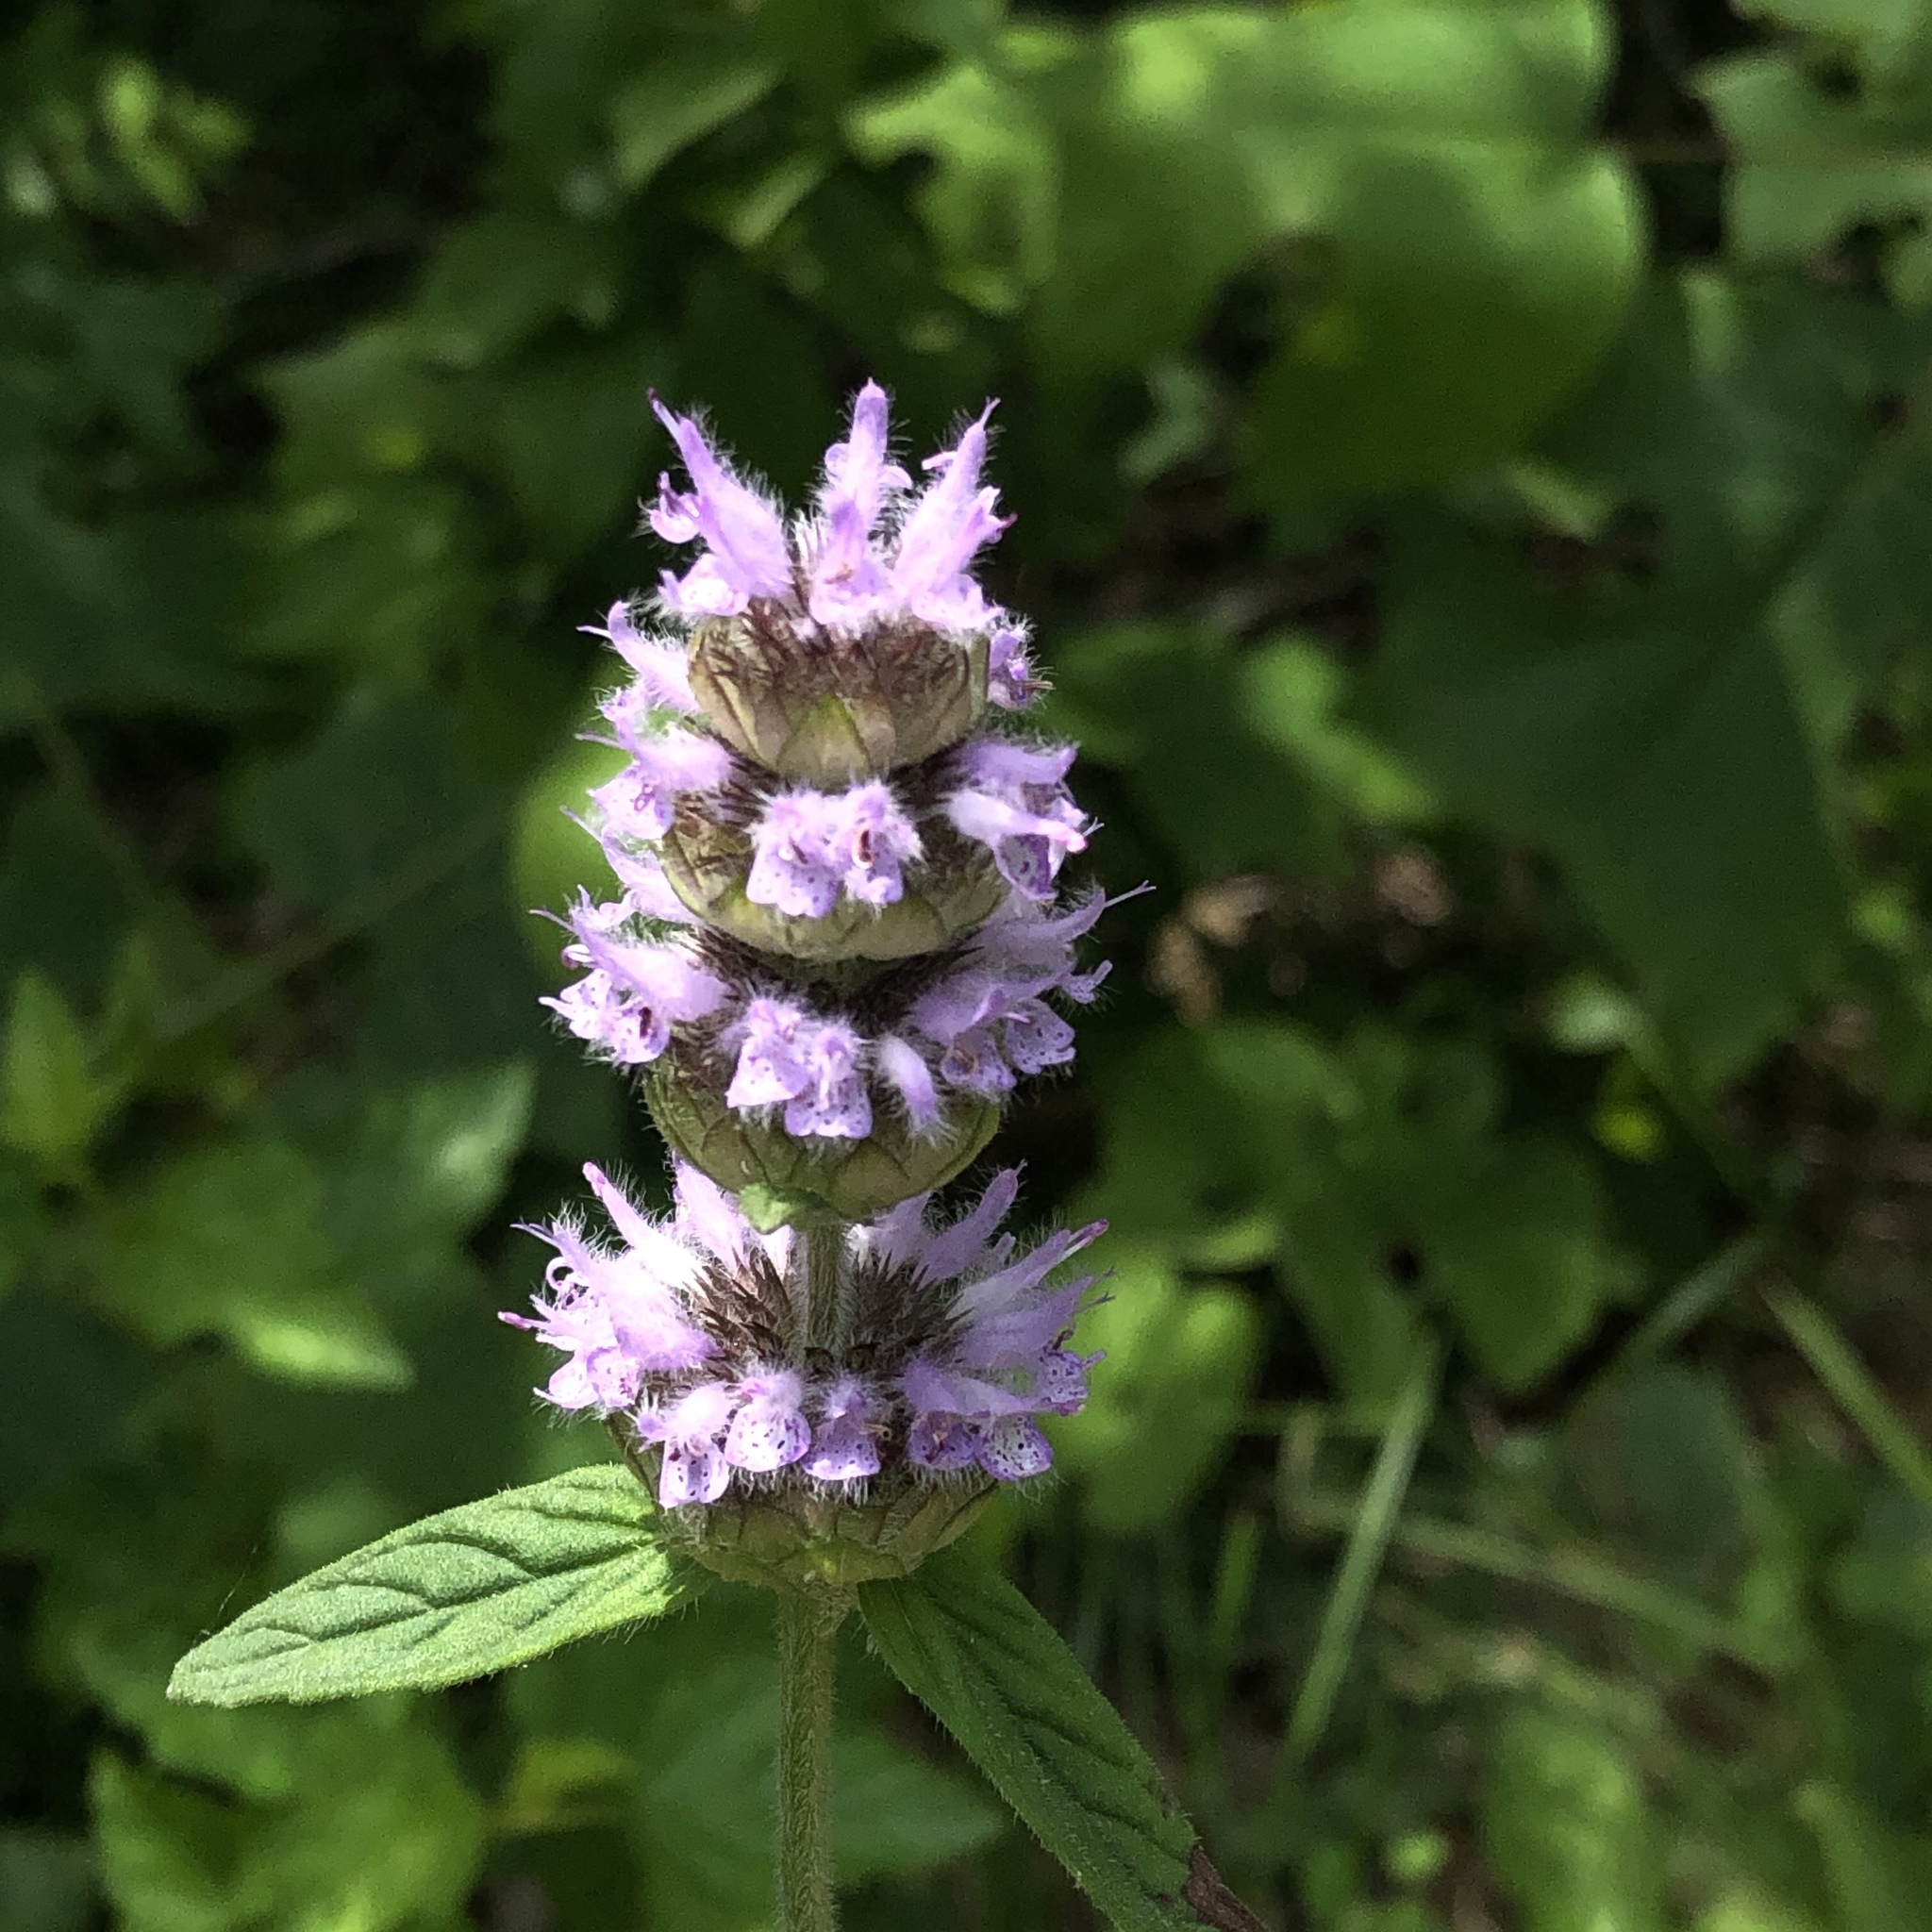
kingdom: Plantae
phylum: Tracheophyta
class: Magnoliopsida
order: Lamiales
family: Lamiaceae
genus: Blephilia
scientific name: Blephilia ciliata
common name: Downy blephilia
